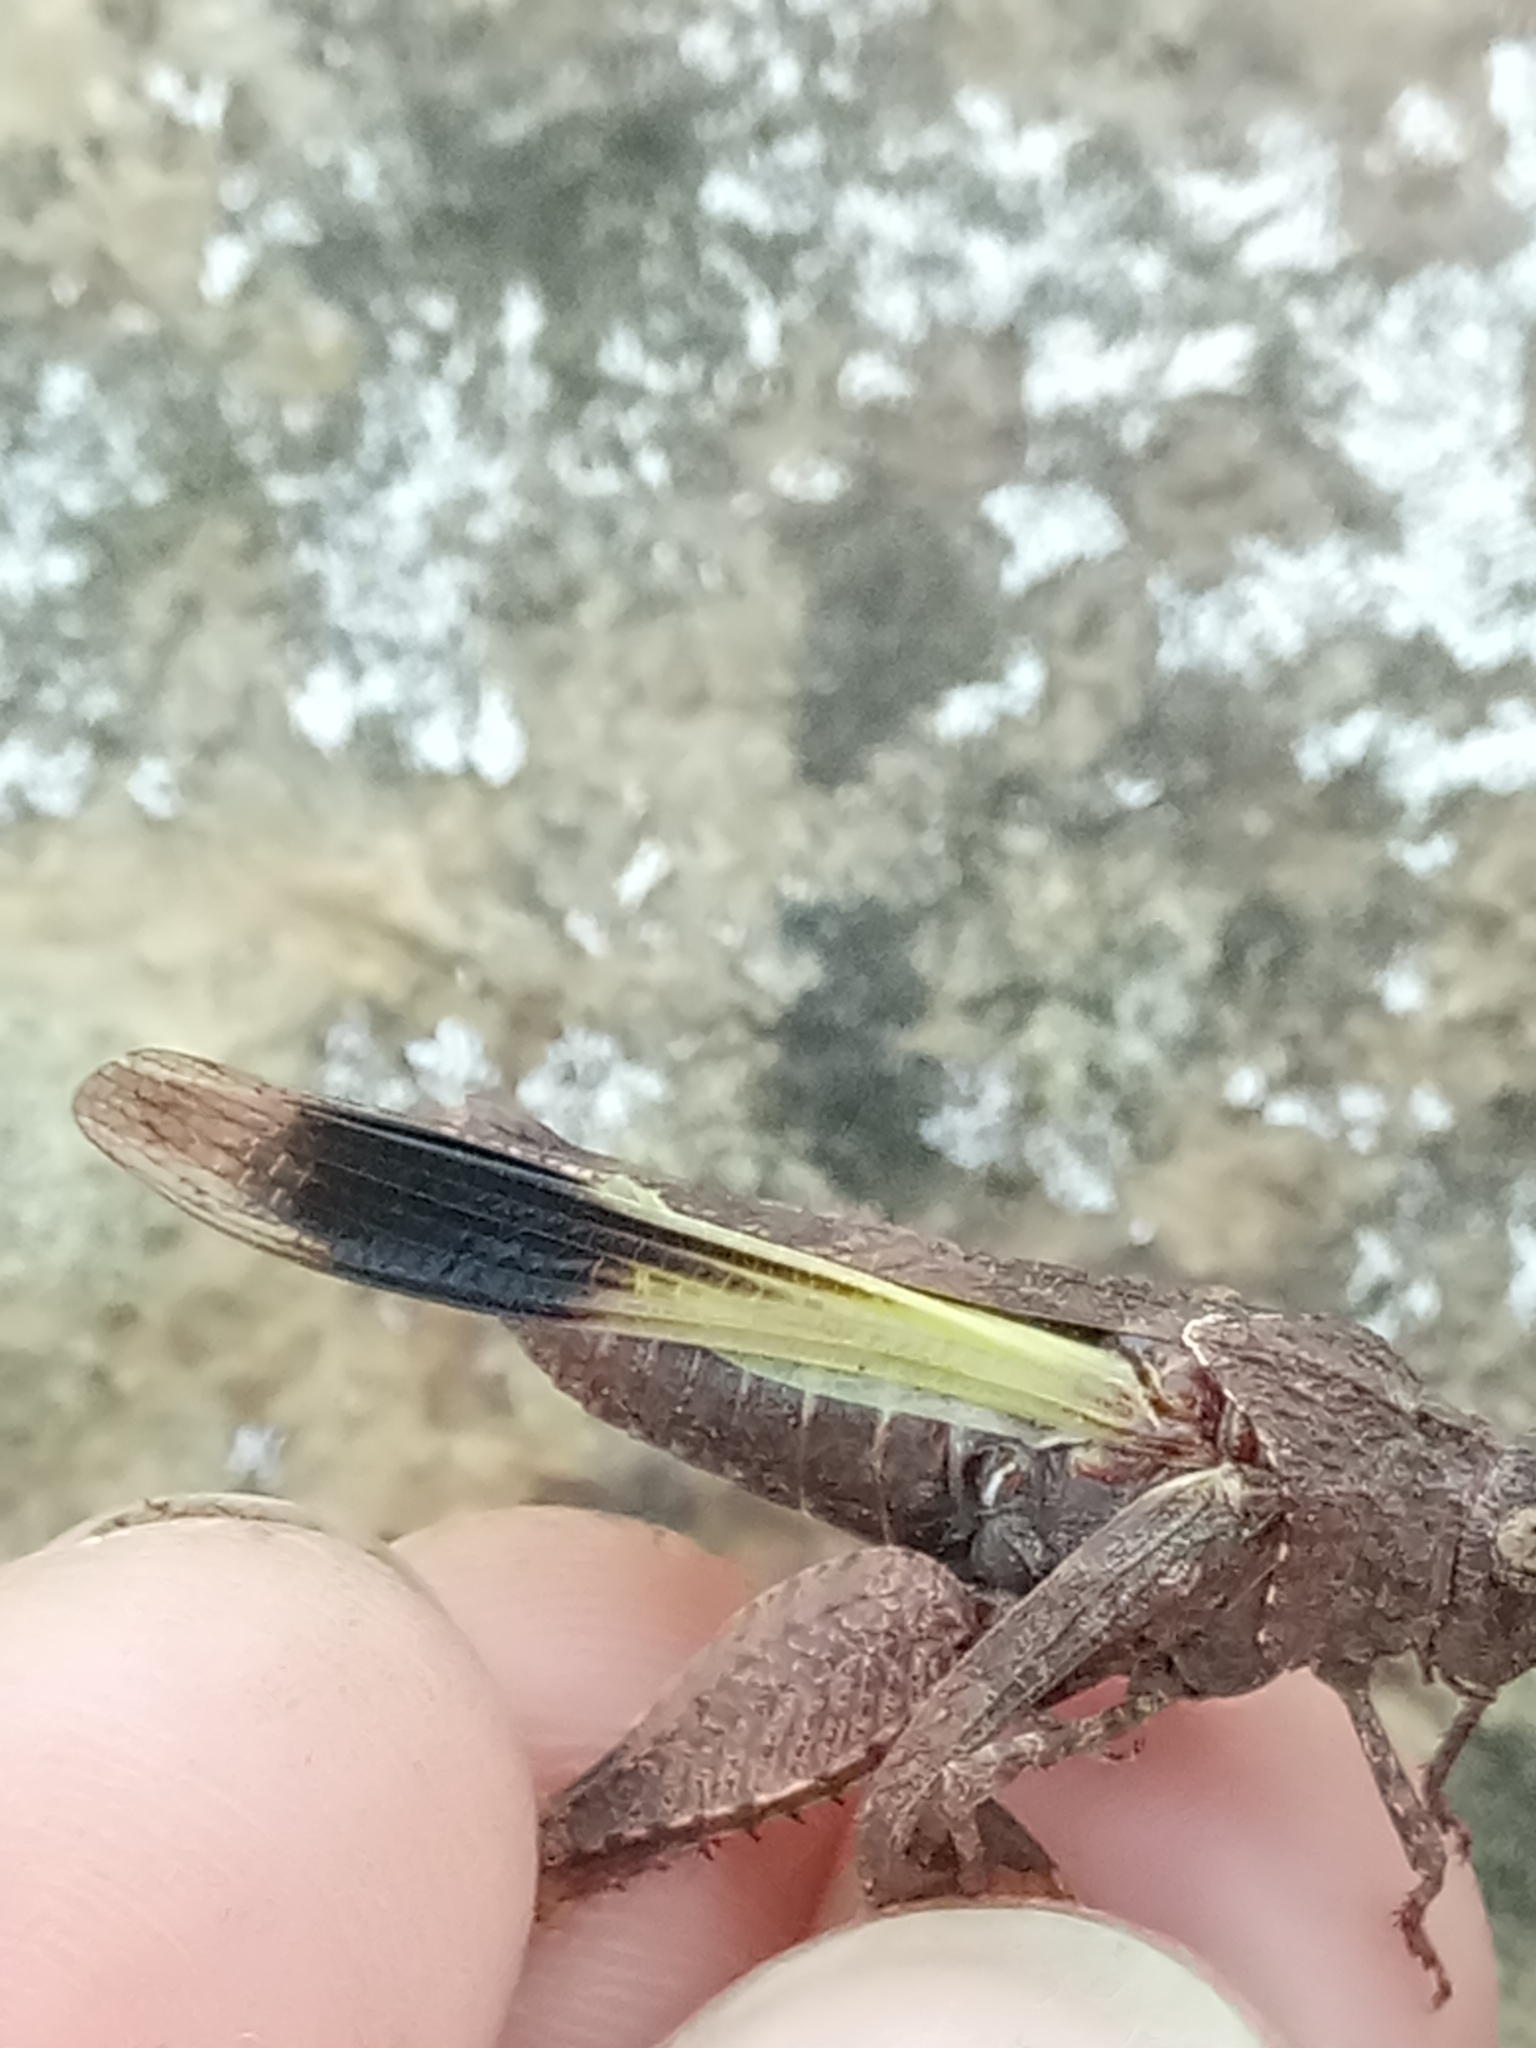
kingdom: Animalia
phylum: Arthropoda
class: Insecta
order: Orthoptera
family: Acrididae
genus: Oedipoda
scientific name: Oedipoda caerulescens
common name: Blue-winged grasshopper
